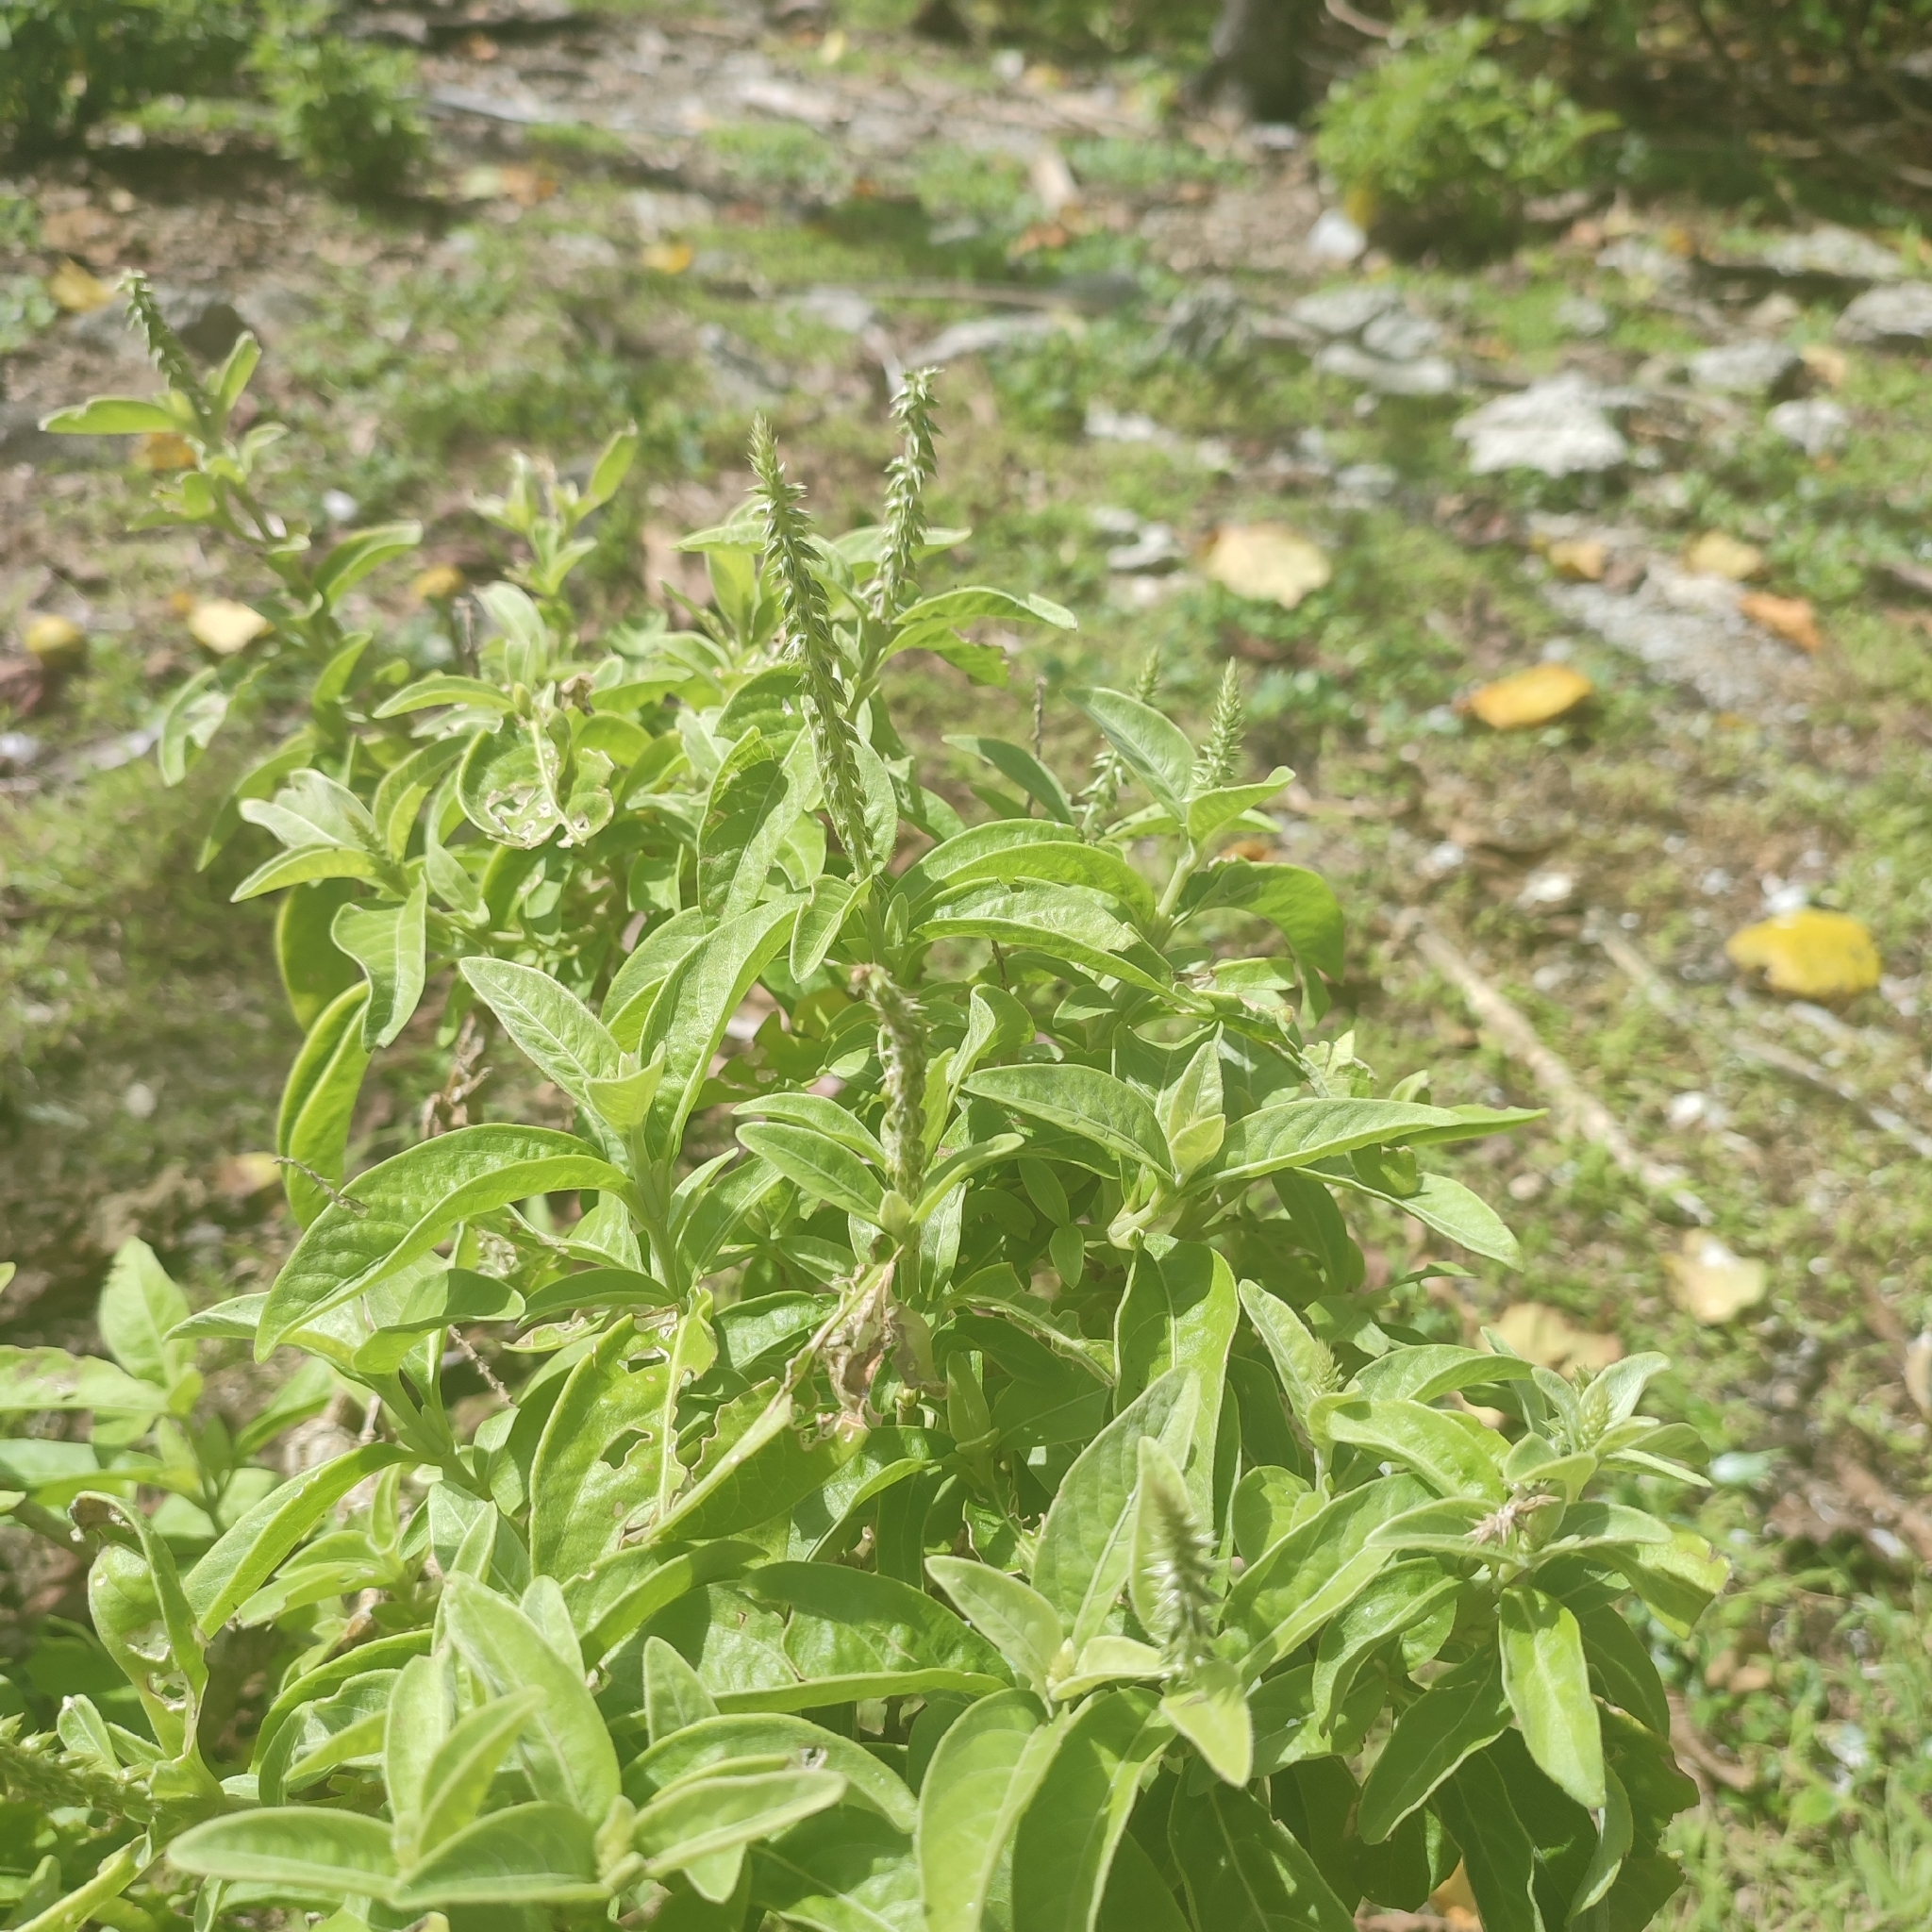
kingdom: Plantae
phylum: Tracheophyta
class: Magnoliopsida
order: Caryophyllales
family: Amaranthaceae
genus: Achyranthes
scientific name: Achyranthes aspera
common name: Devil's horsewhip
